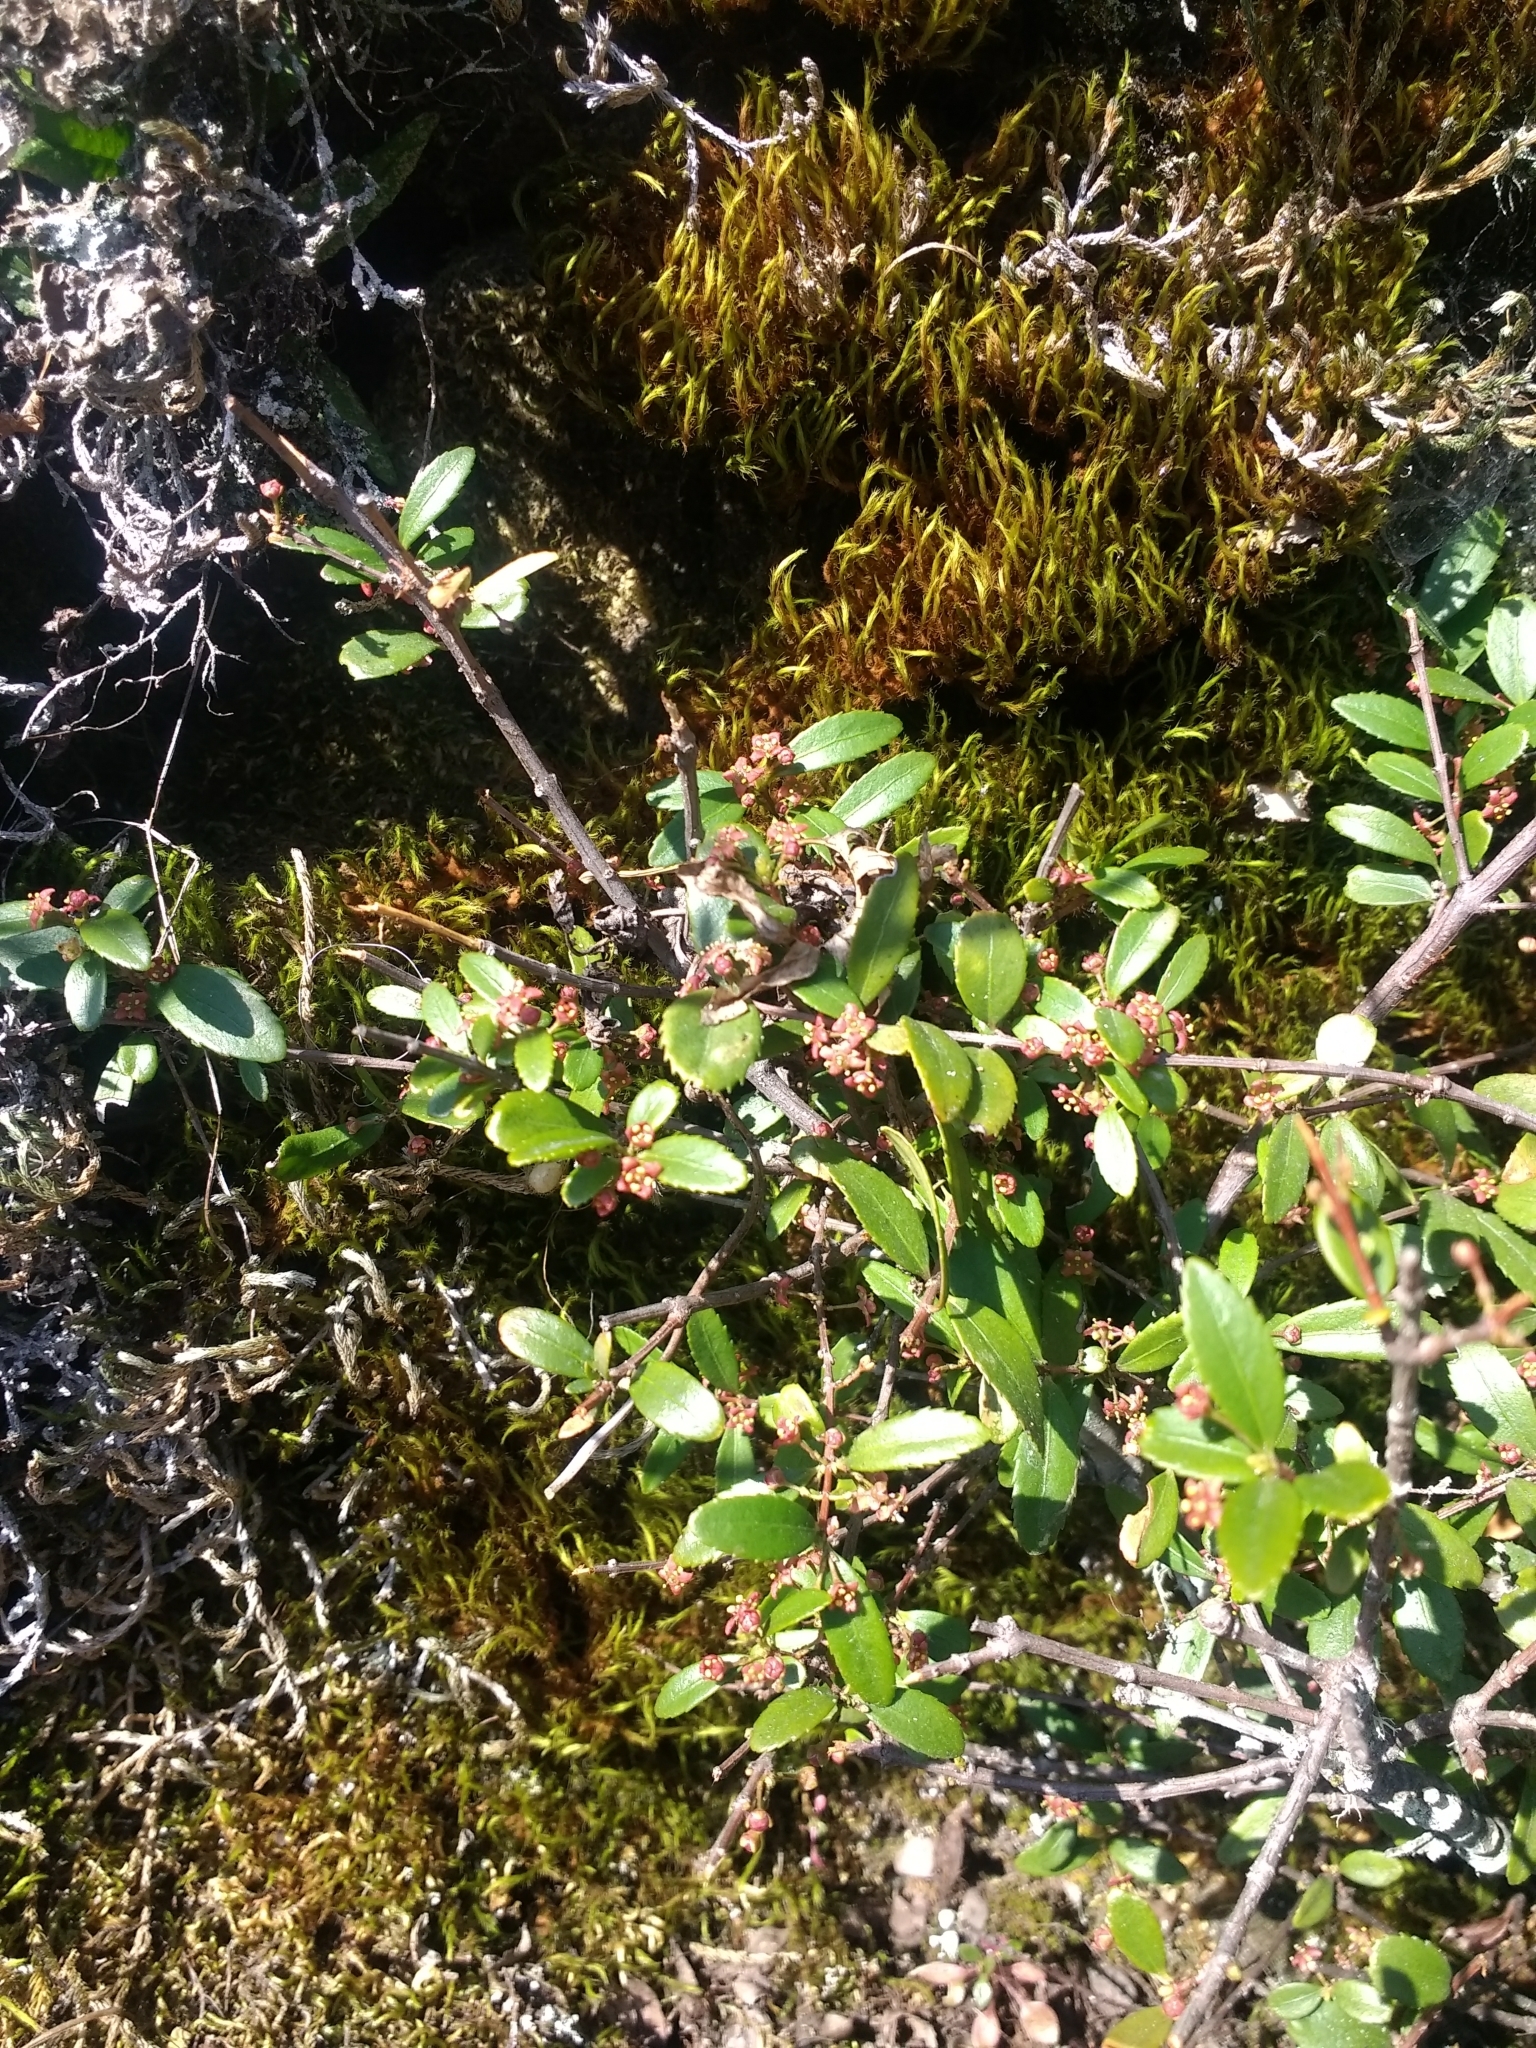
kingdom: Plantae
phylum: Tracheophyta
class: Magnoliopsida
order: Celastrales
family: Celastraceae
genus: Paxistima
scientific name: Paxistima myrsinites
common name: Mountain-lover
